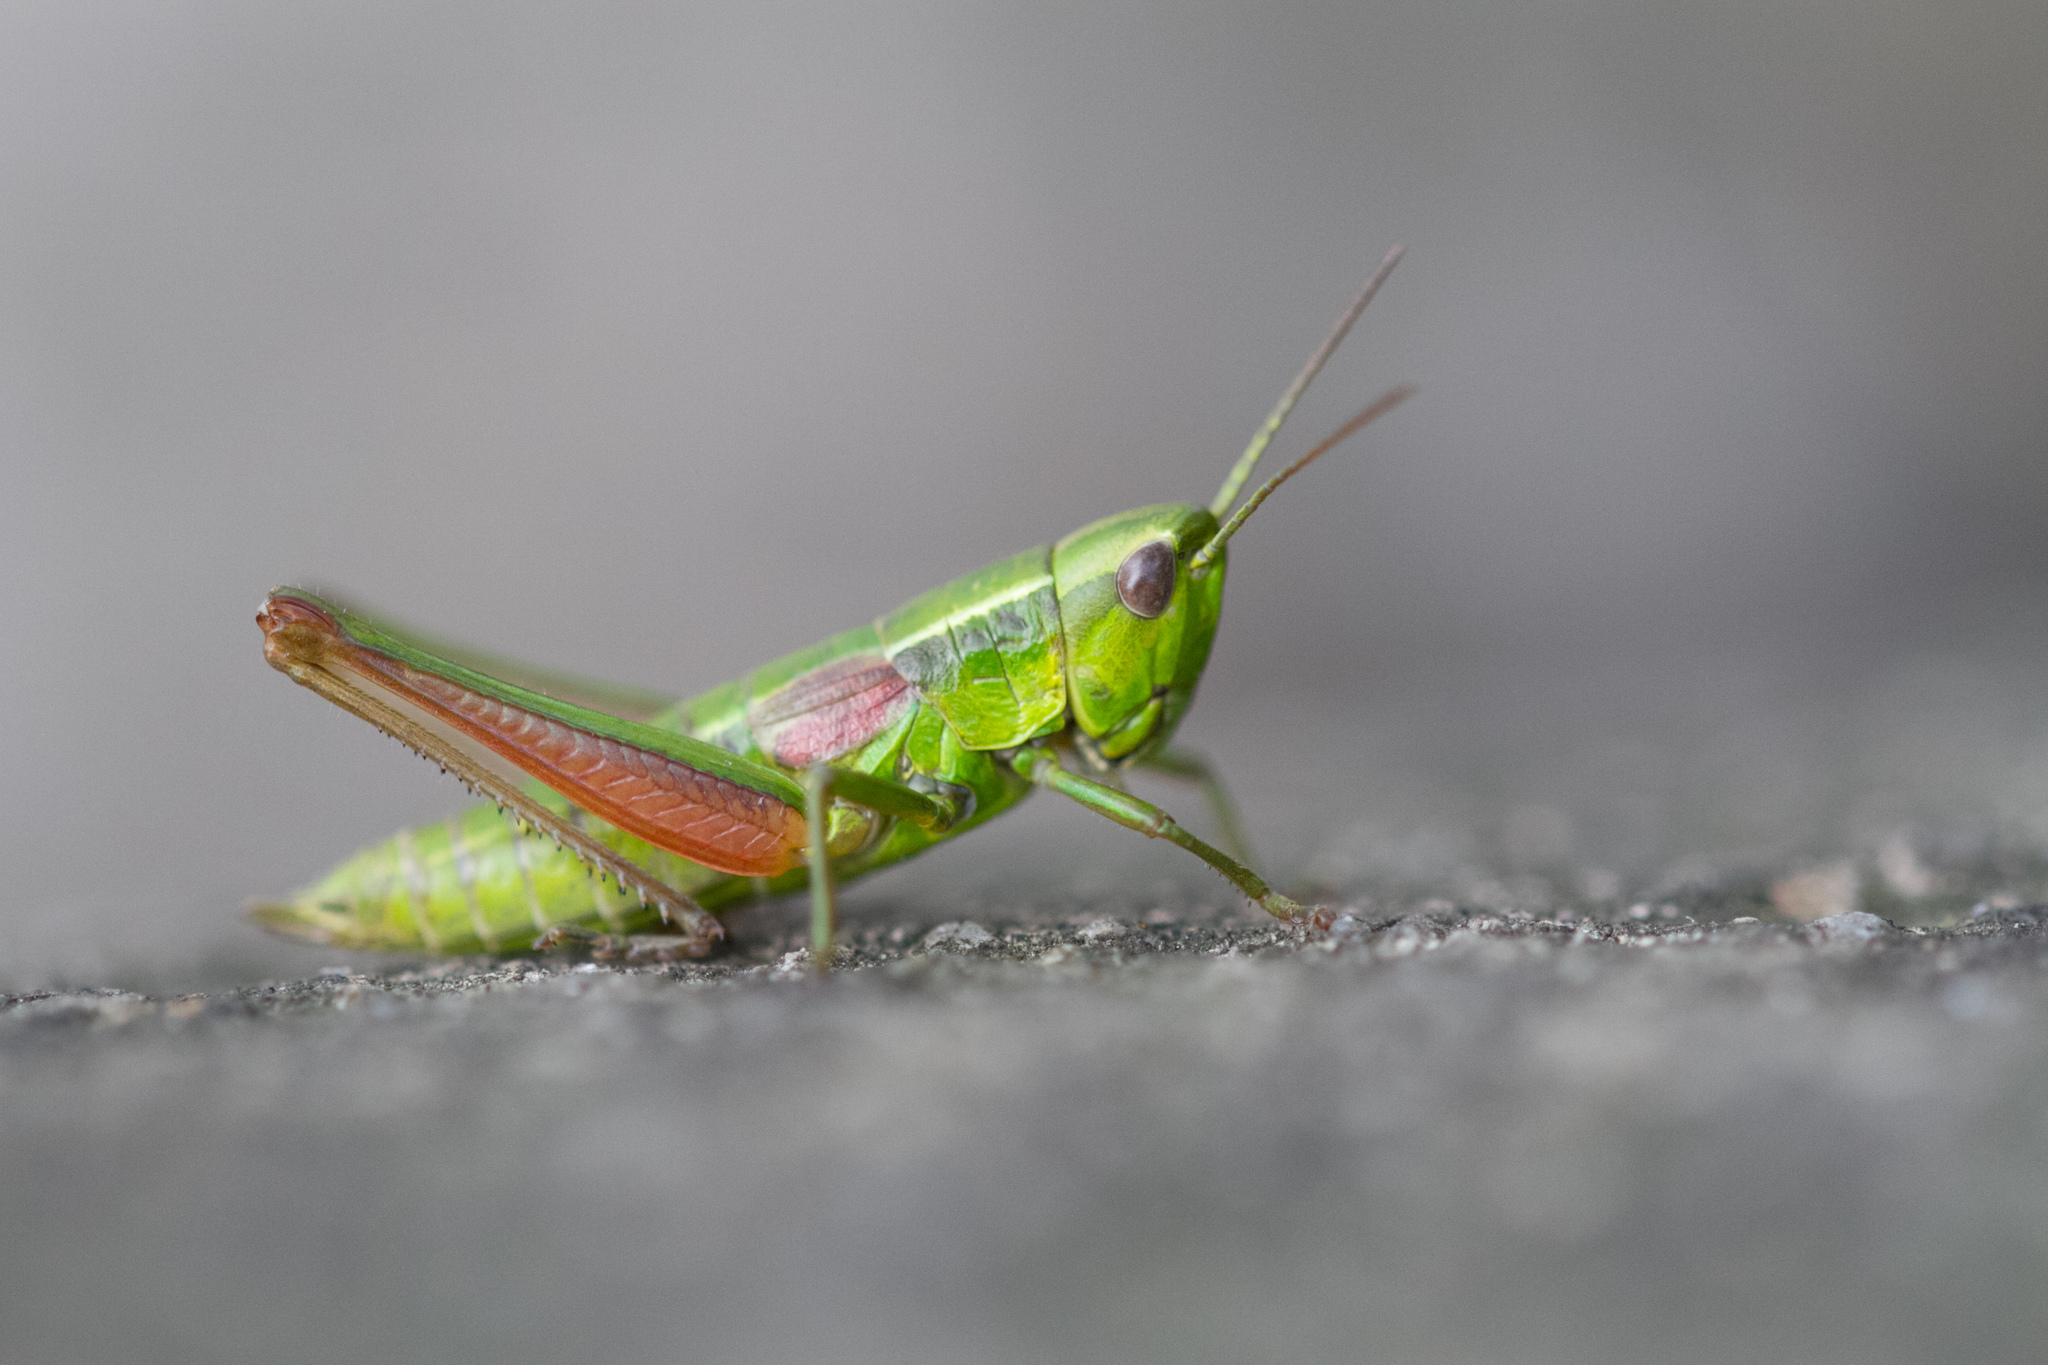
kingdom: Animalia
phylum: Arthropoda
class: Insecta
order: Orthoptera
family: Acrididae
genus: Euthystira
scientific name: Euthystira brachyptera
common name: Small gold grasshopper
